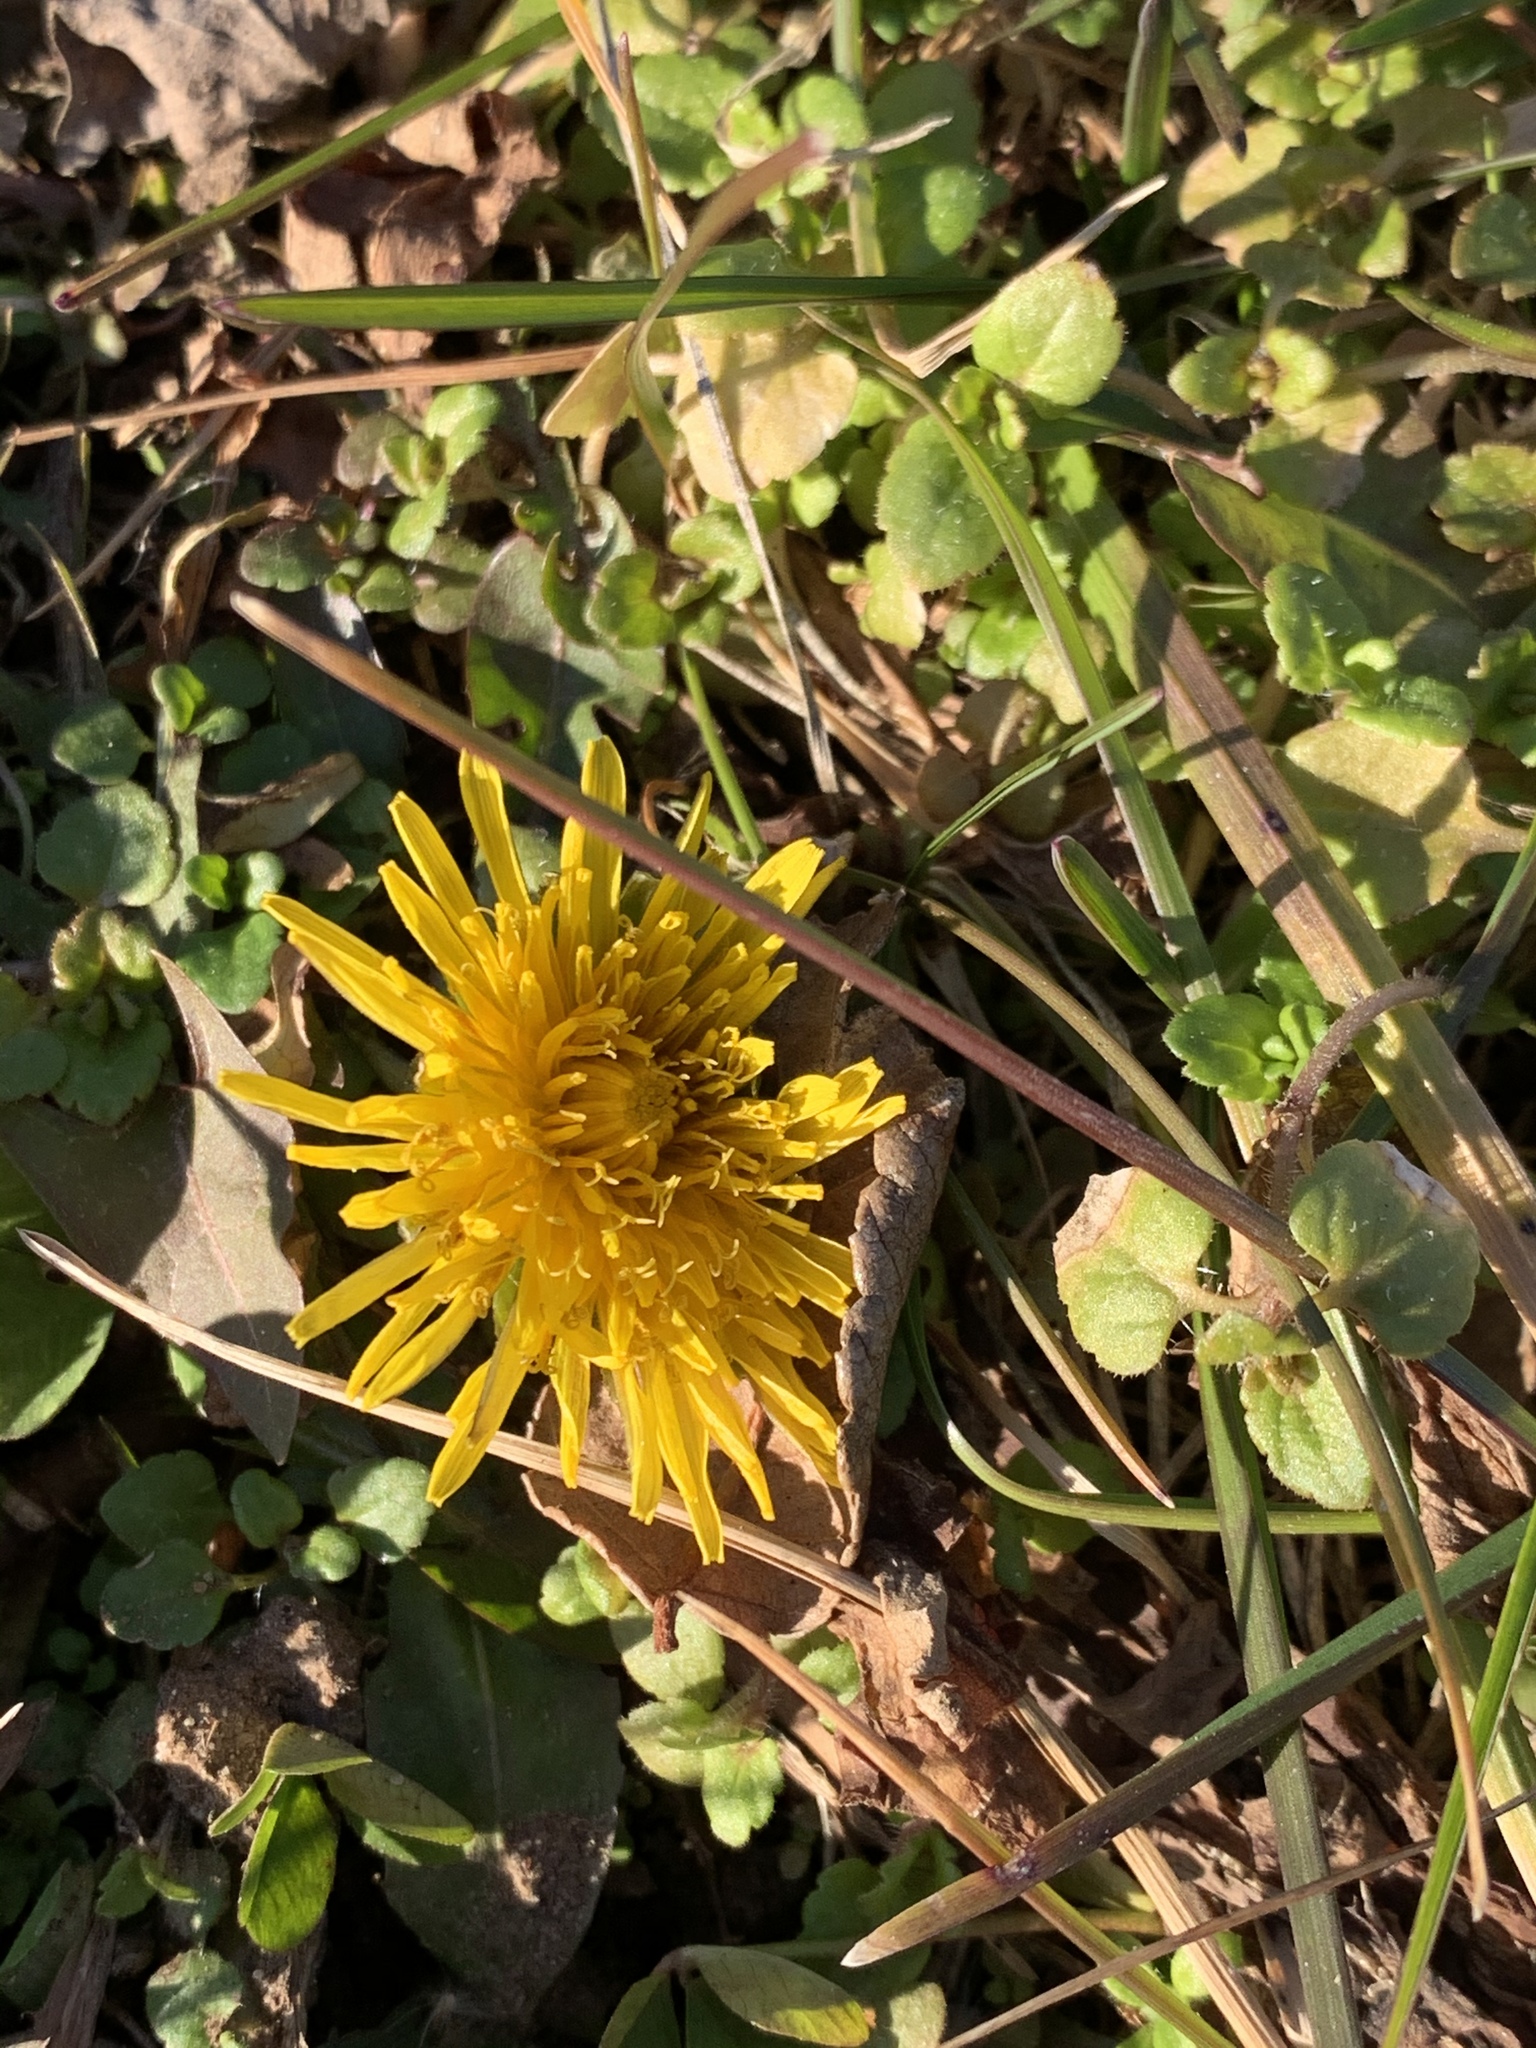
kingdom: Plantae
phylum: Tracheophyta
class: Magnoliopsida
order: Asterales
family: Asteraceae
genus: Taraxacum
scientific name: Taraxacum
